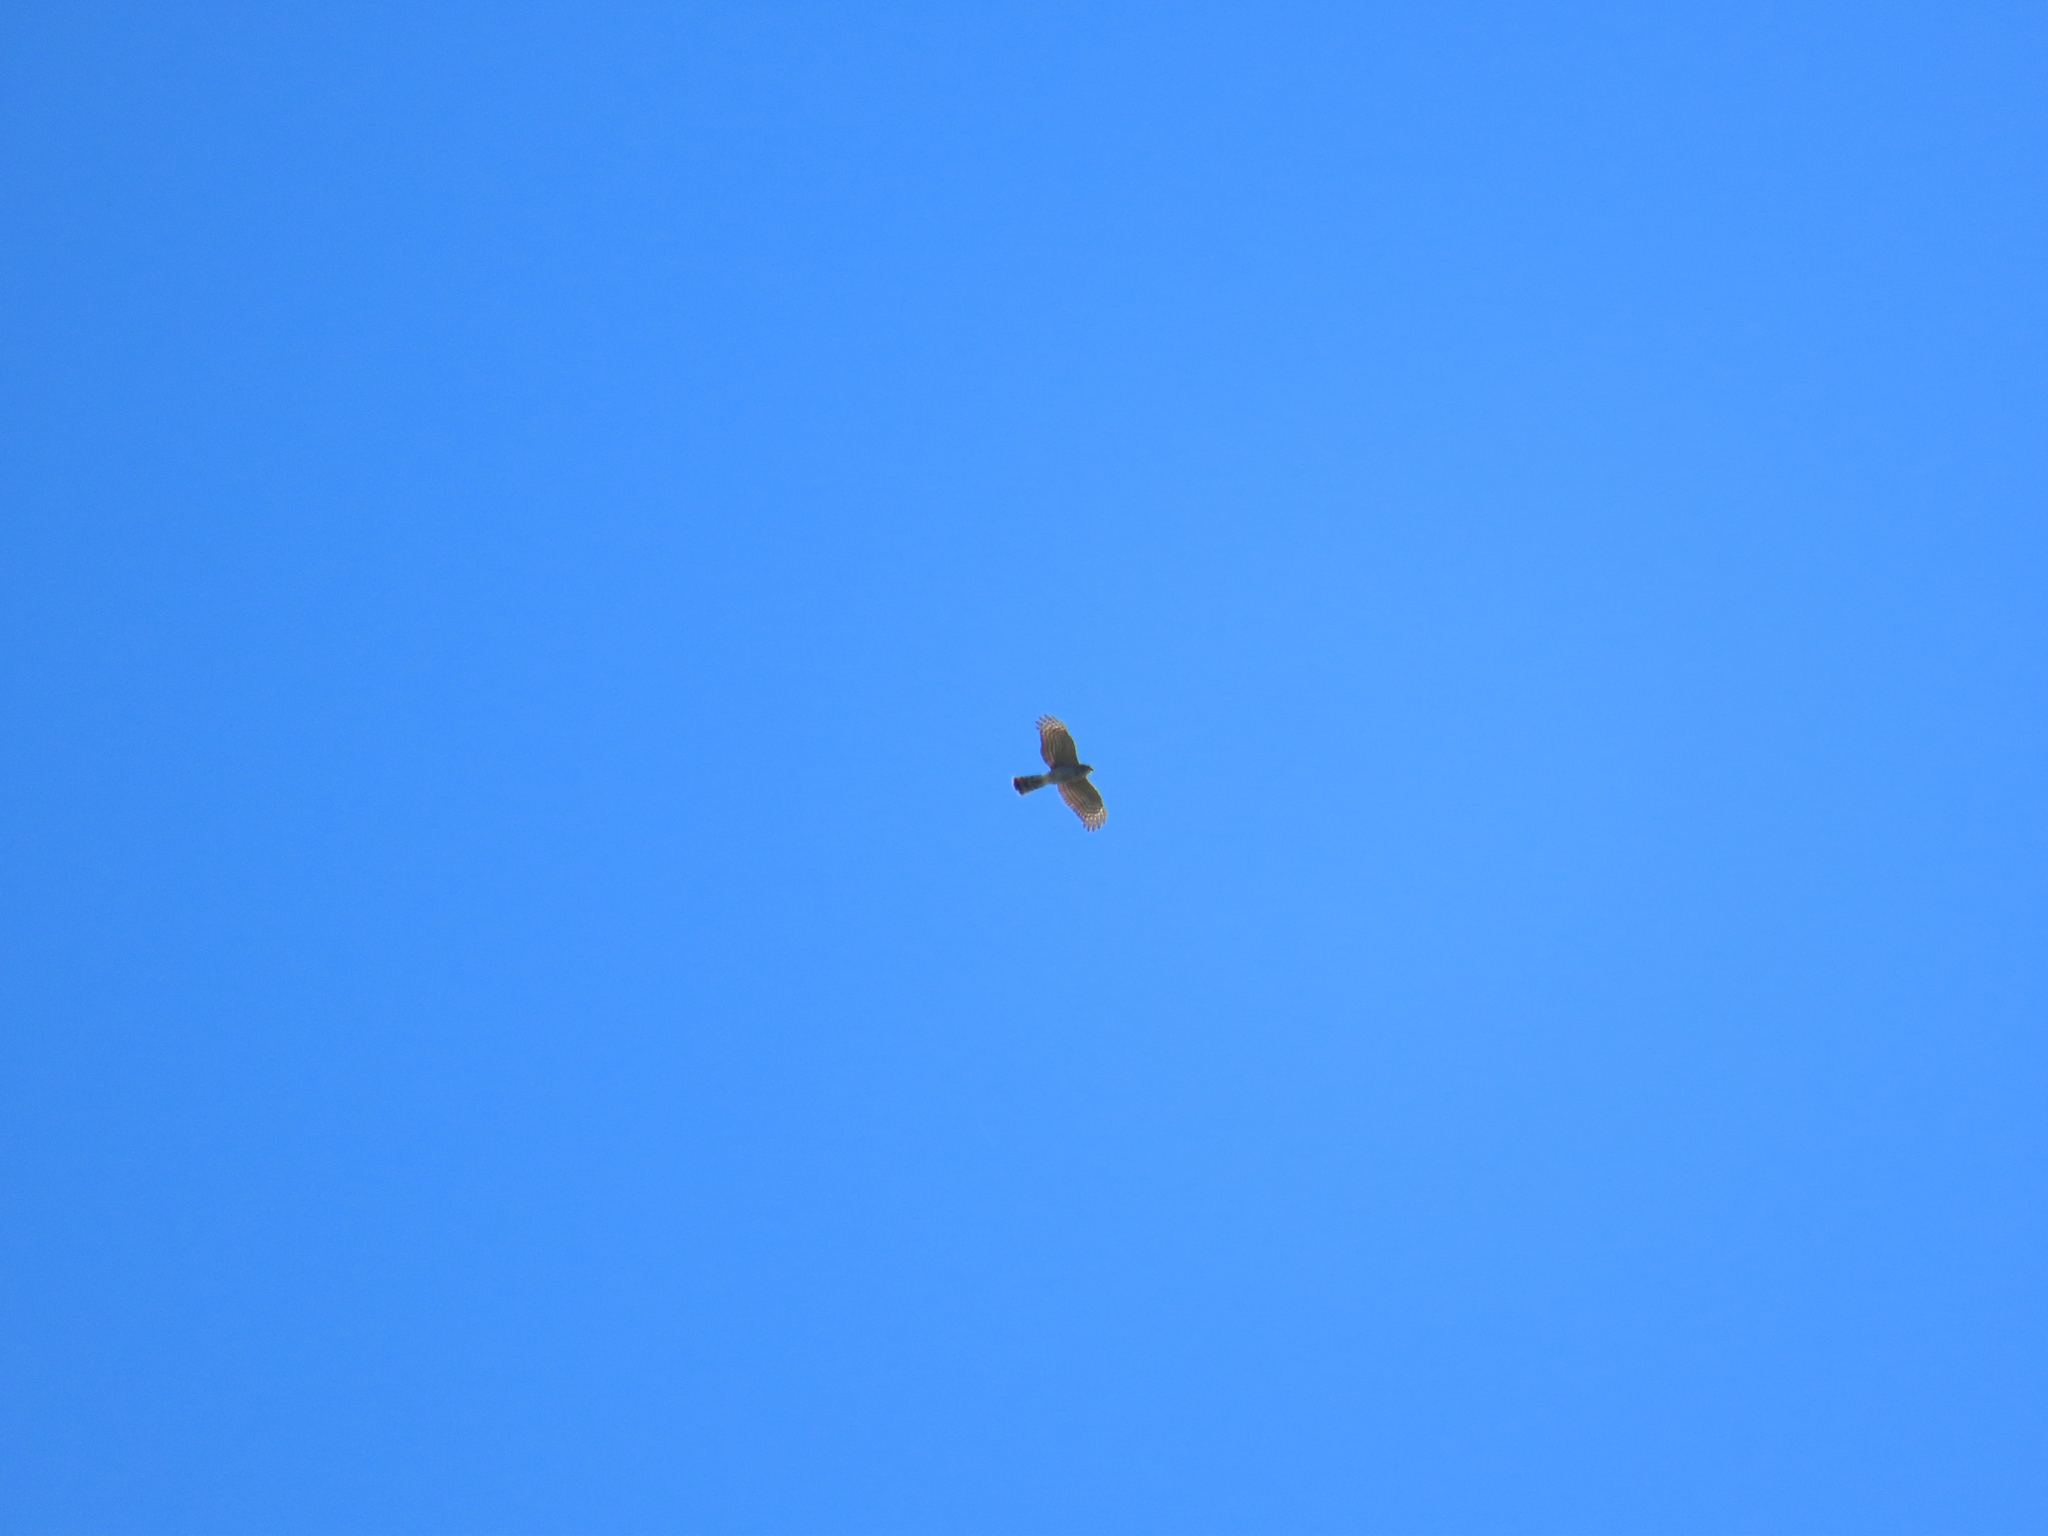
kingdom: Animalia
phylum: Chordata
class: Aves
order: Accipitriformes
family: Accipitridae
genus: Accipiter
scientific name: Accipiter cooperii
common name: Cooper's hawk
